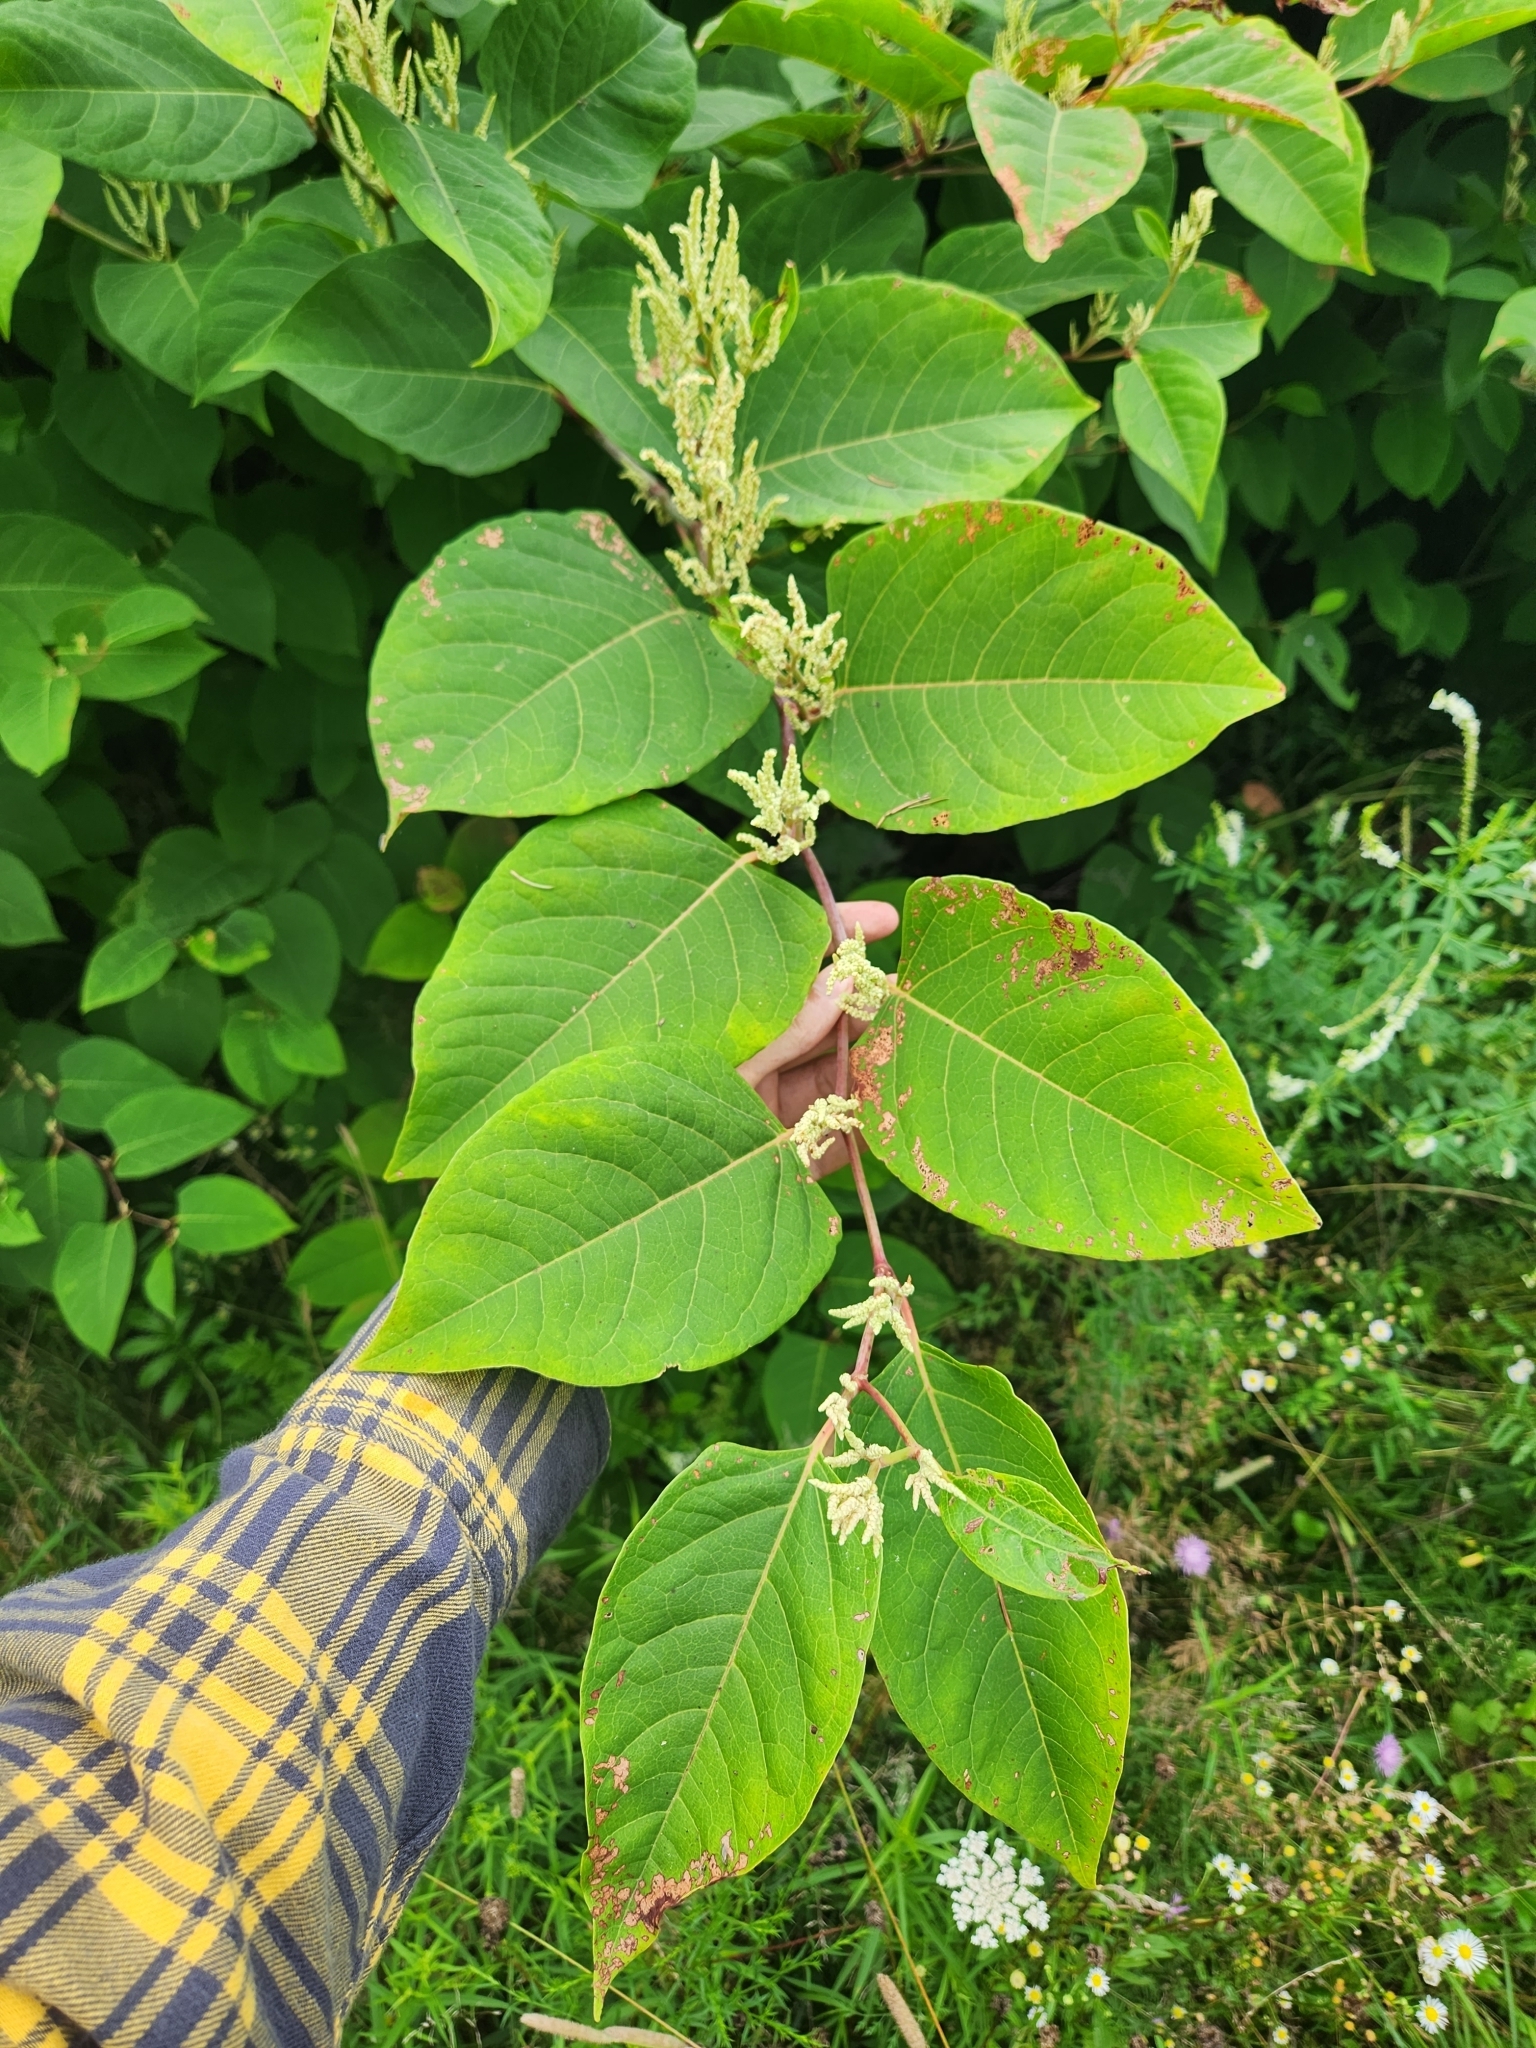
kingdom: Plantae
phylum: Tracheophyta
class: Magnoliopsida
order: Caryophyllales
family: Polygonaceae
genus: Reynoutria
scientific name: Reynoutria japonica
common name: Japanese knotweed
